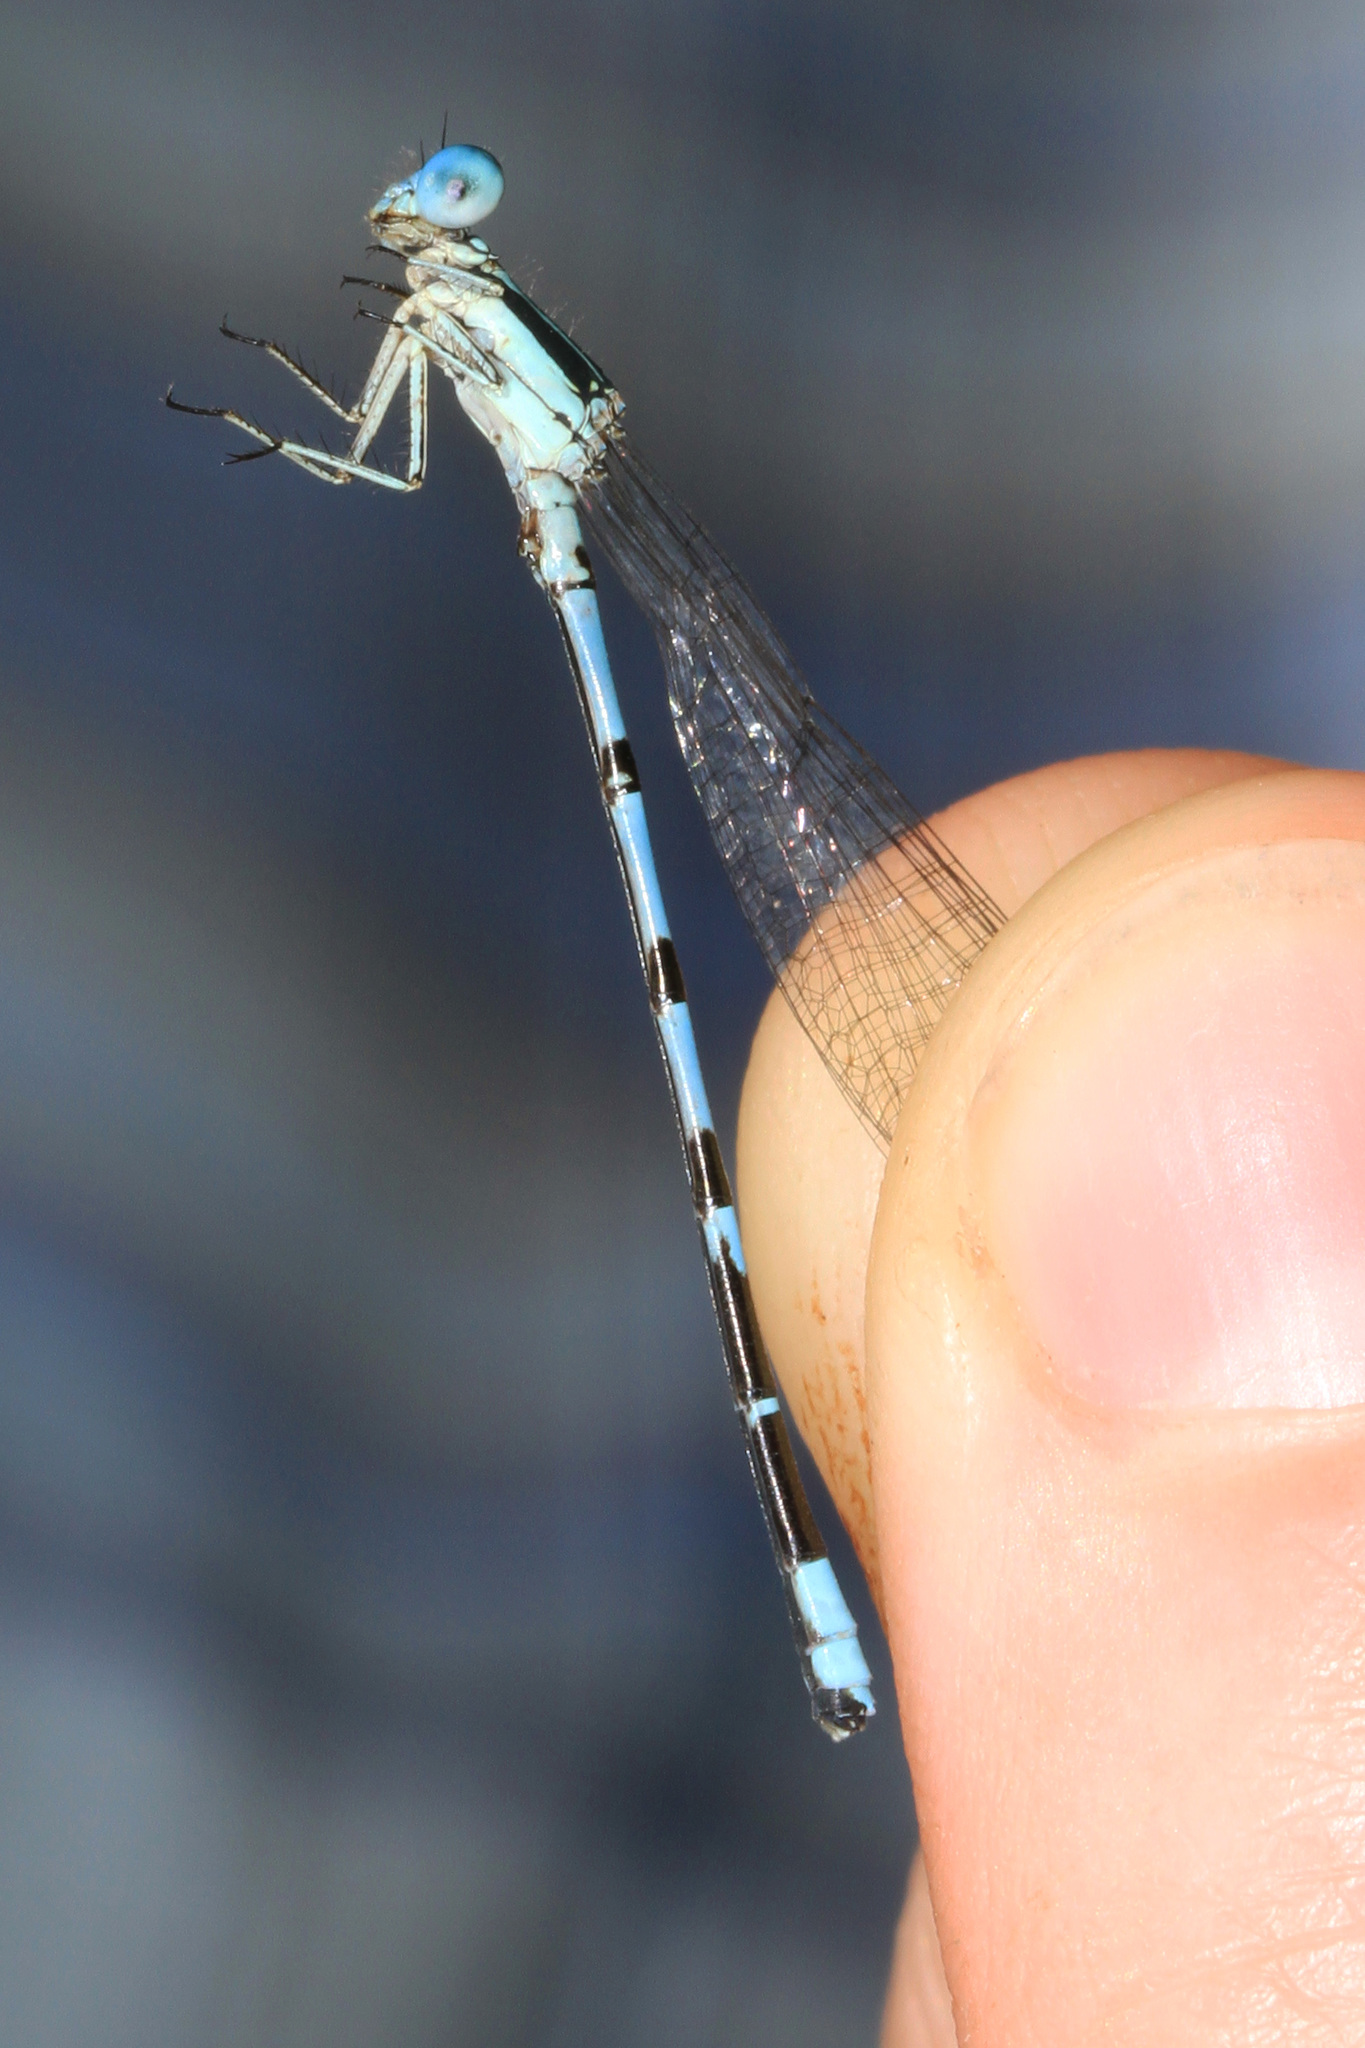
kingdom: Animalia
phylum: Arthropoda
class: Insecta
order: Odonata
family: Coenagrionidae
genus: Argia
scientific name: Argia bipunctulata
